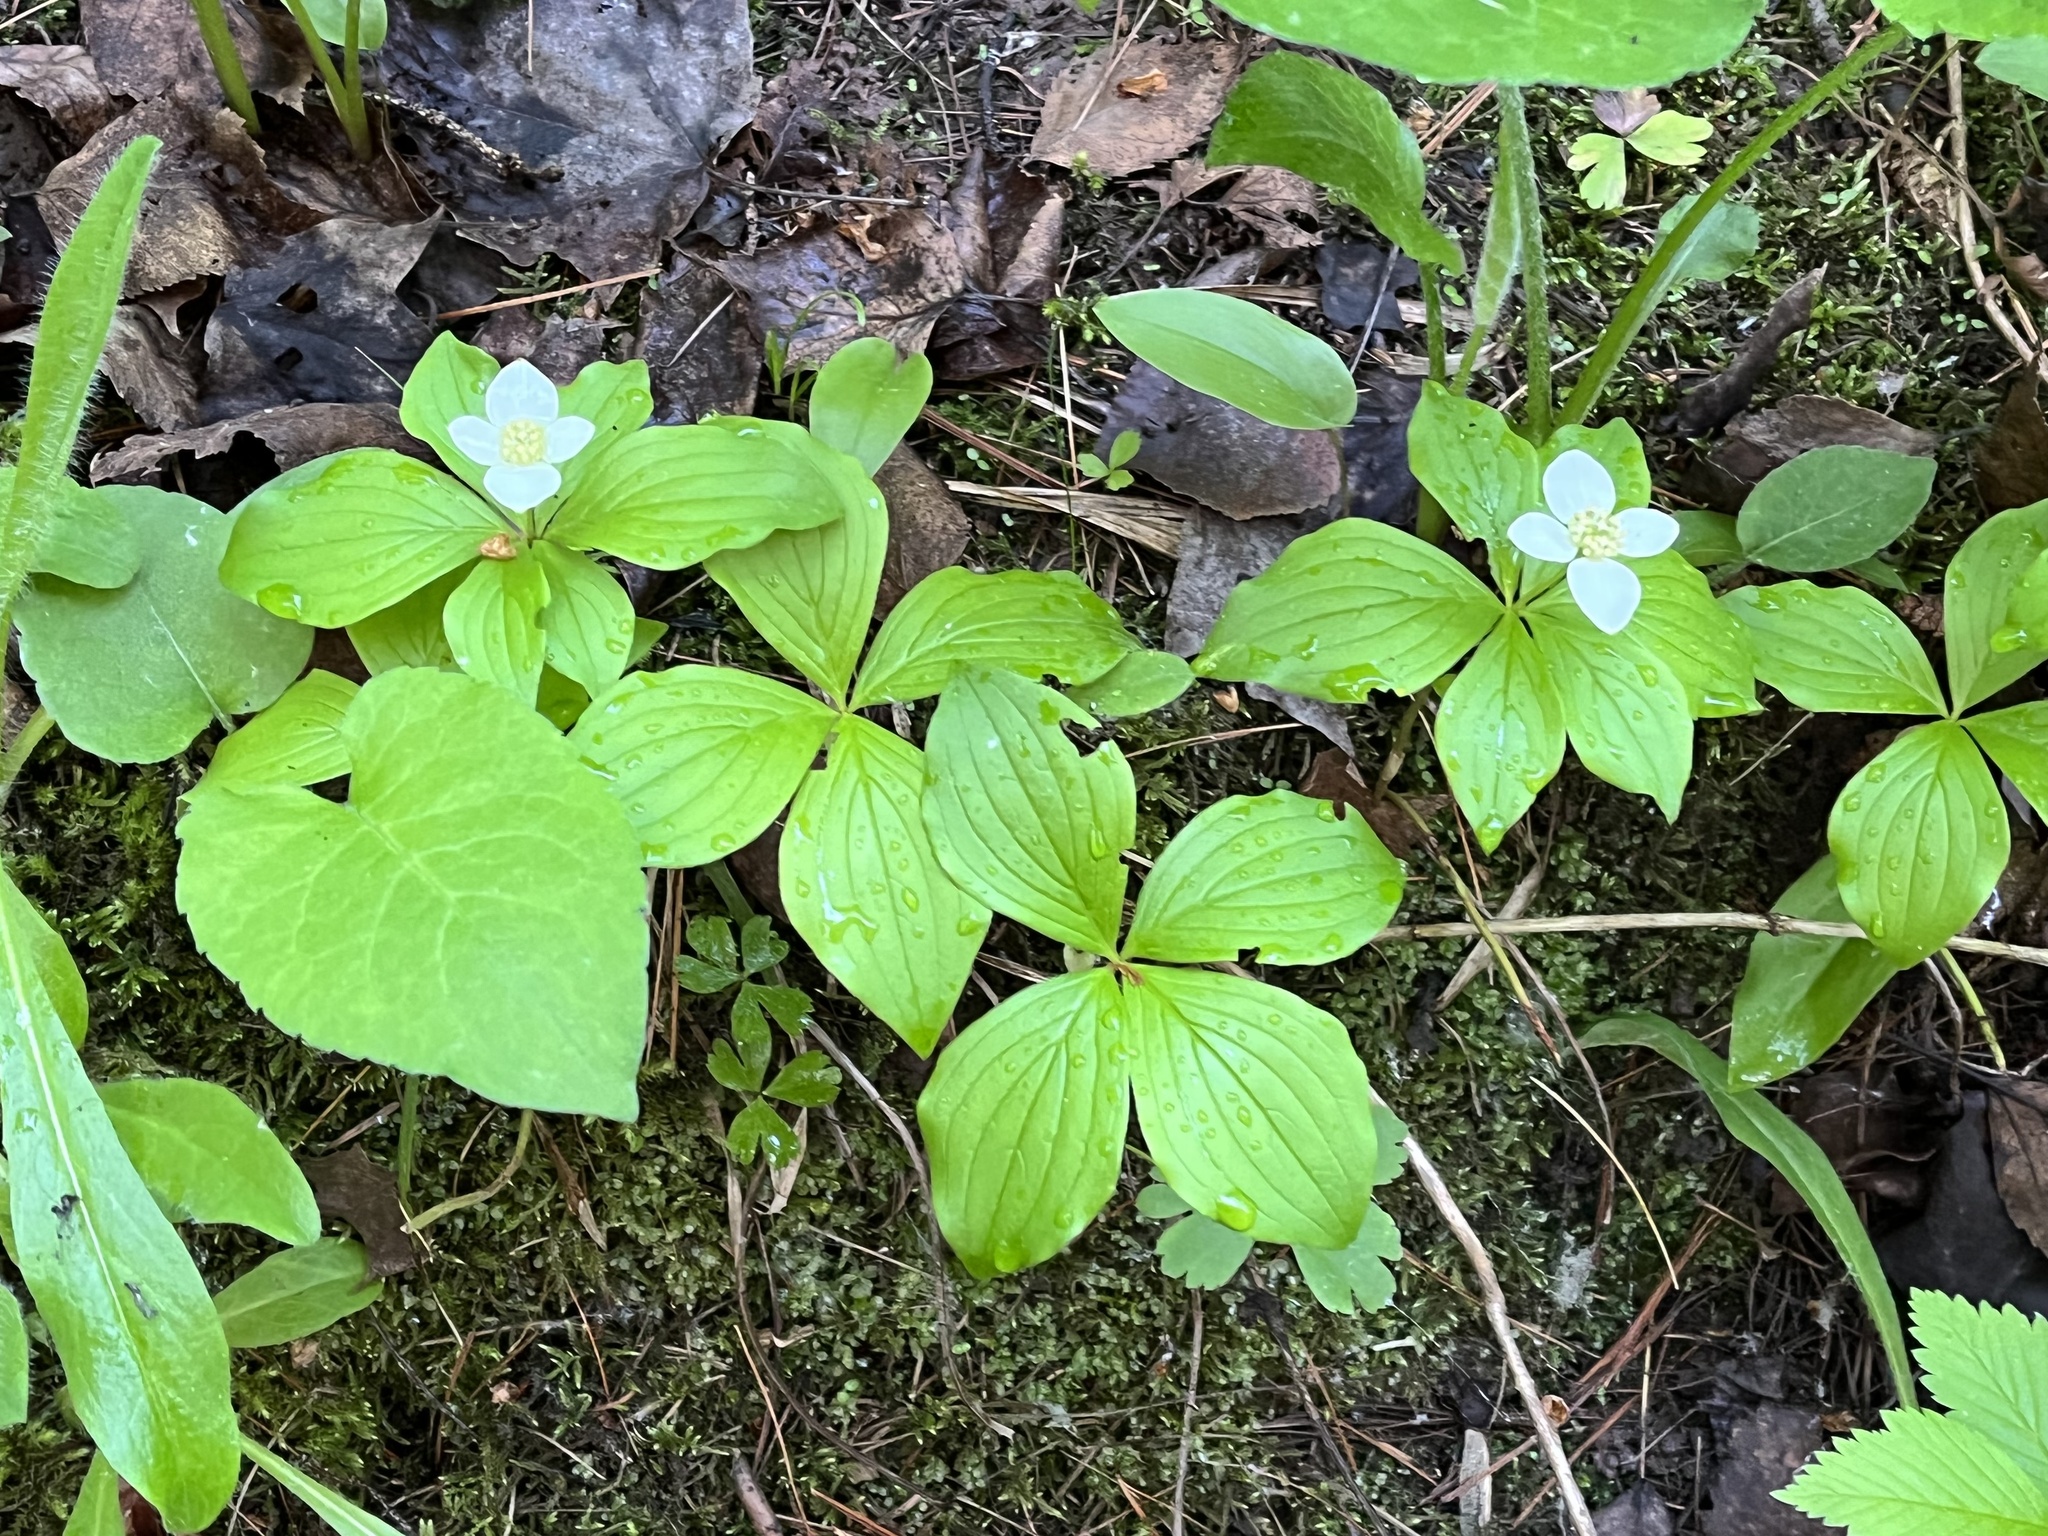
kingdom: Plantae
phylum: Tracheophyta
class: Magnoliopsida
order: Cornales
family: Cornaceae
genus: Cornus
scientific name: Cornus canadensis
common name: Creeping dogwood
